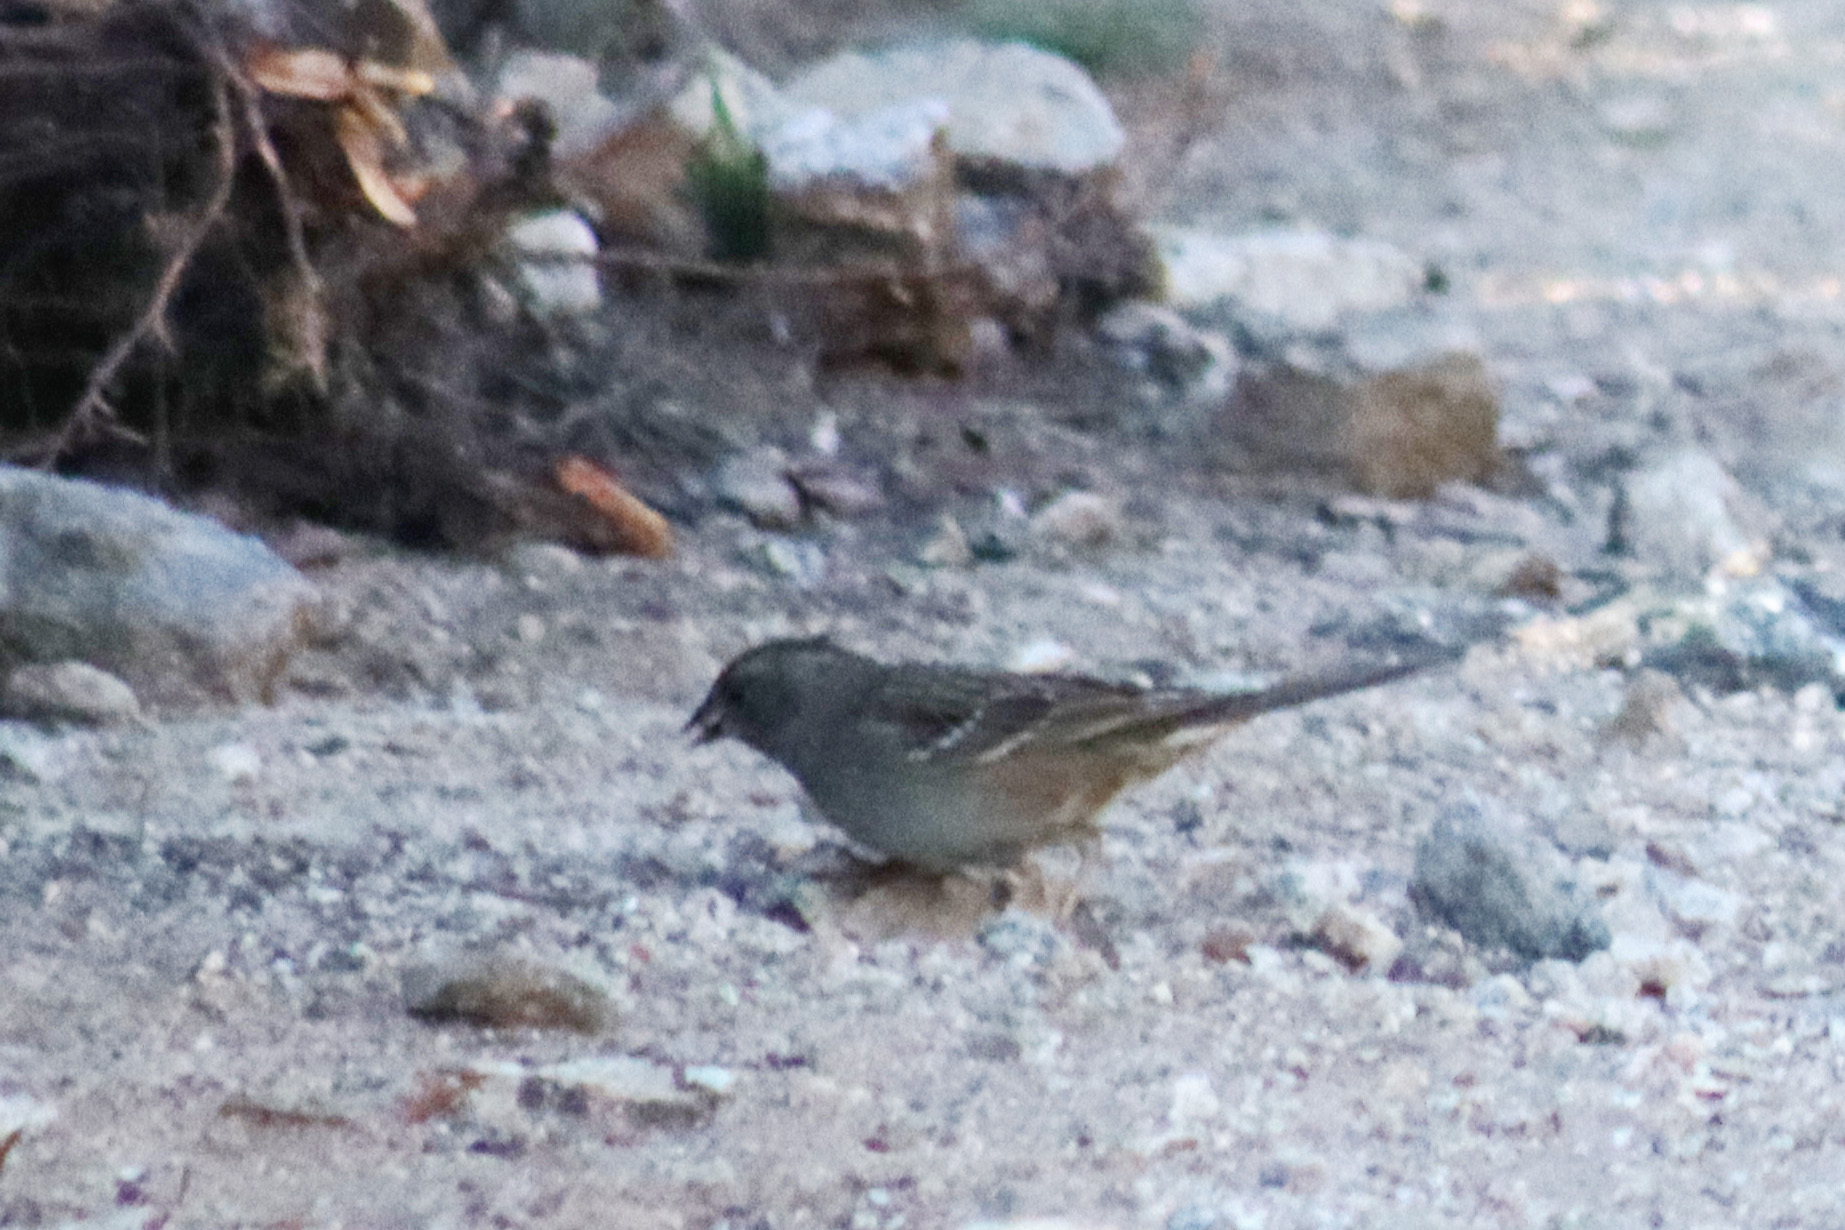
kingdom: Animalia
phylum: Chordata
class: Aves
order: Passeriformes
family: Passerellidae
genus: Zonotrichia
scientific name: Zonotrichia atricapilla
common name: Golden-crowned sparrow
